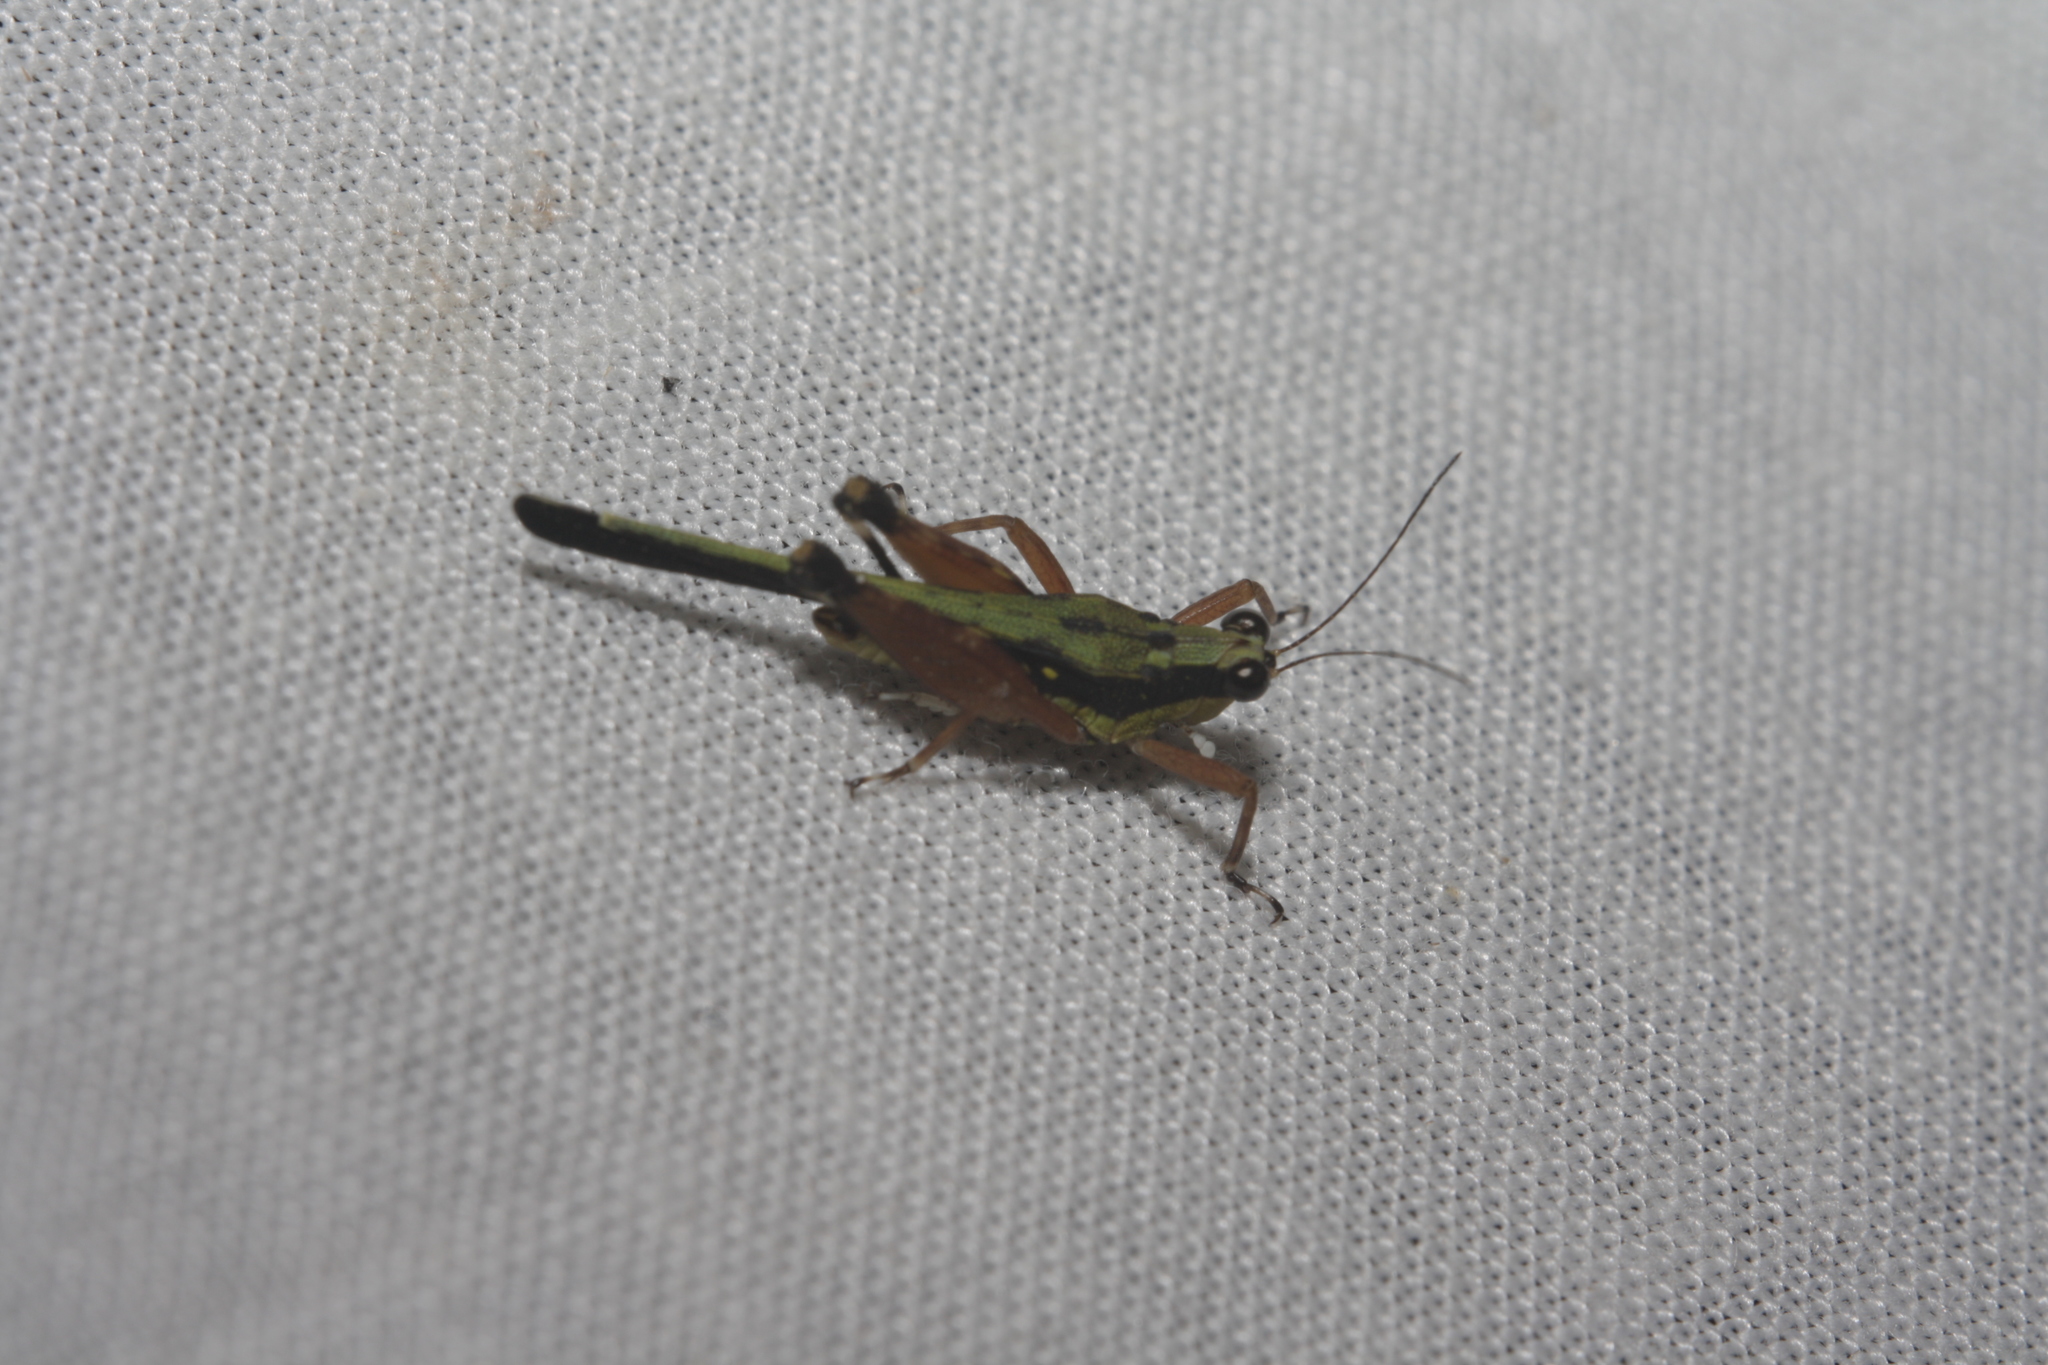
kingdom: Animalia
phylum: Arthropoda
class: Insecta
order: Orthoptera
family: Tetrigidae
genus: Scaria
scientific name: Scaria fasciata
